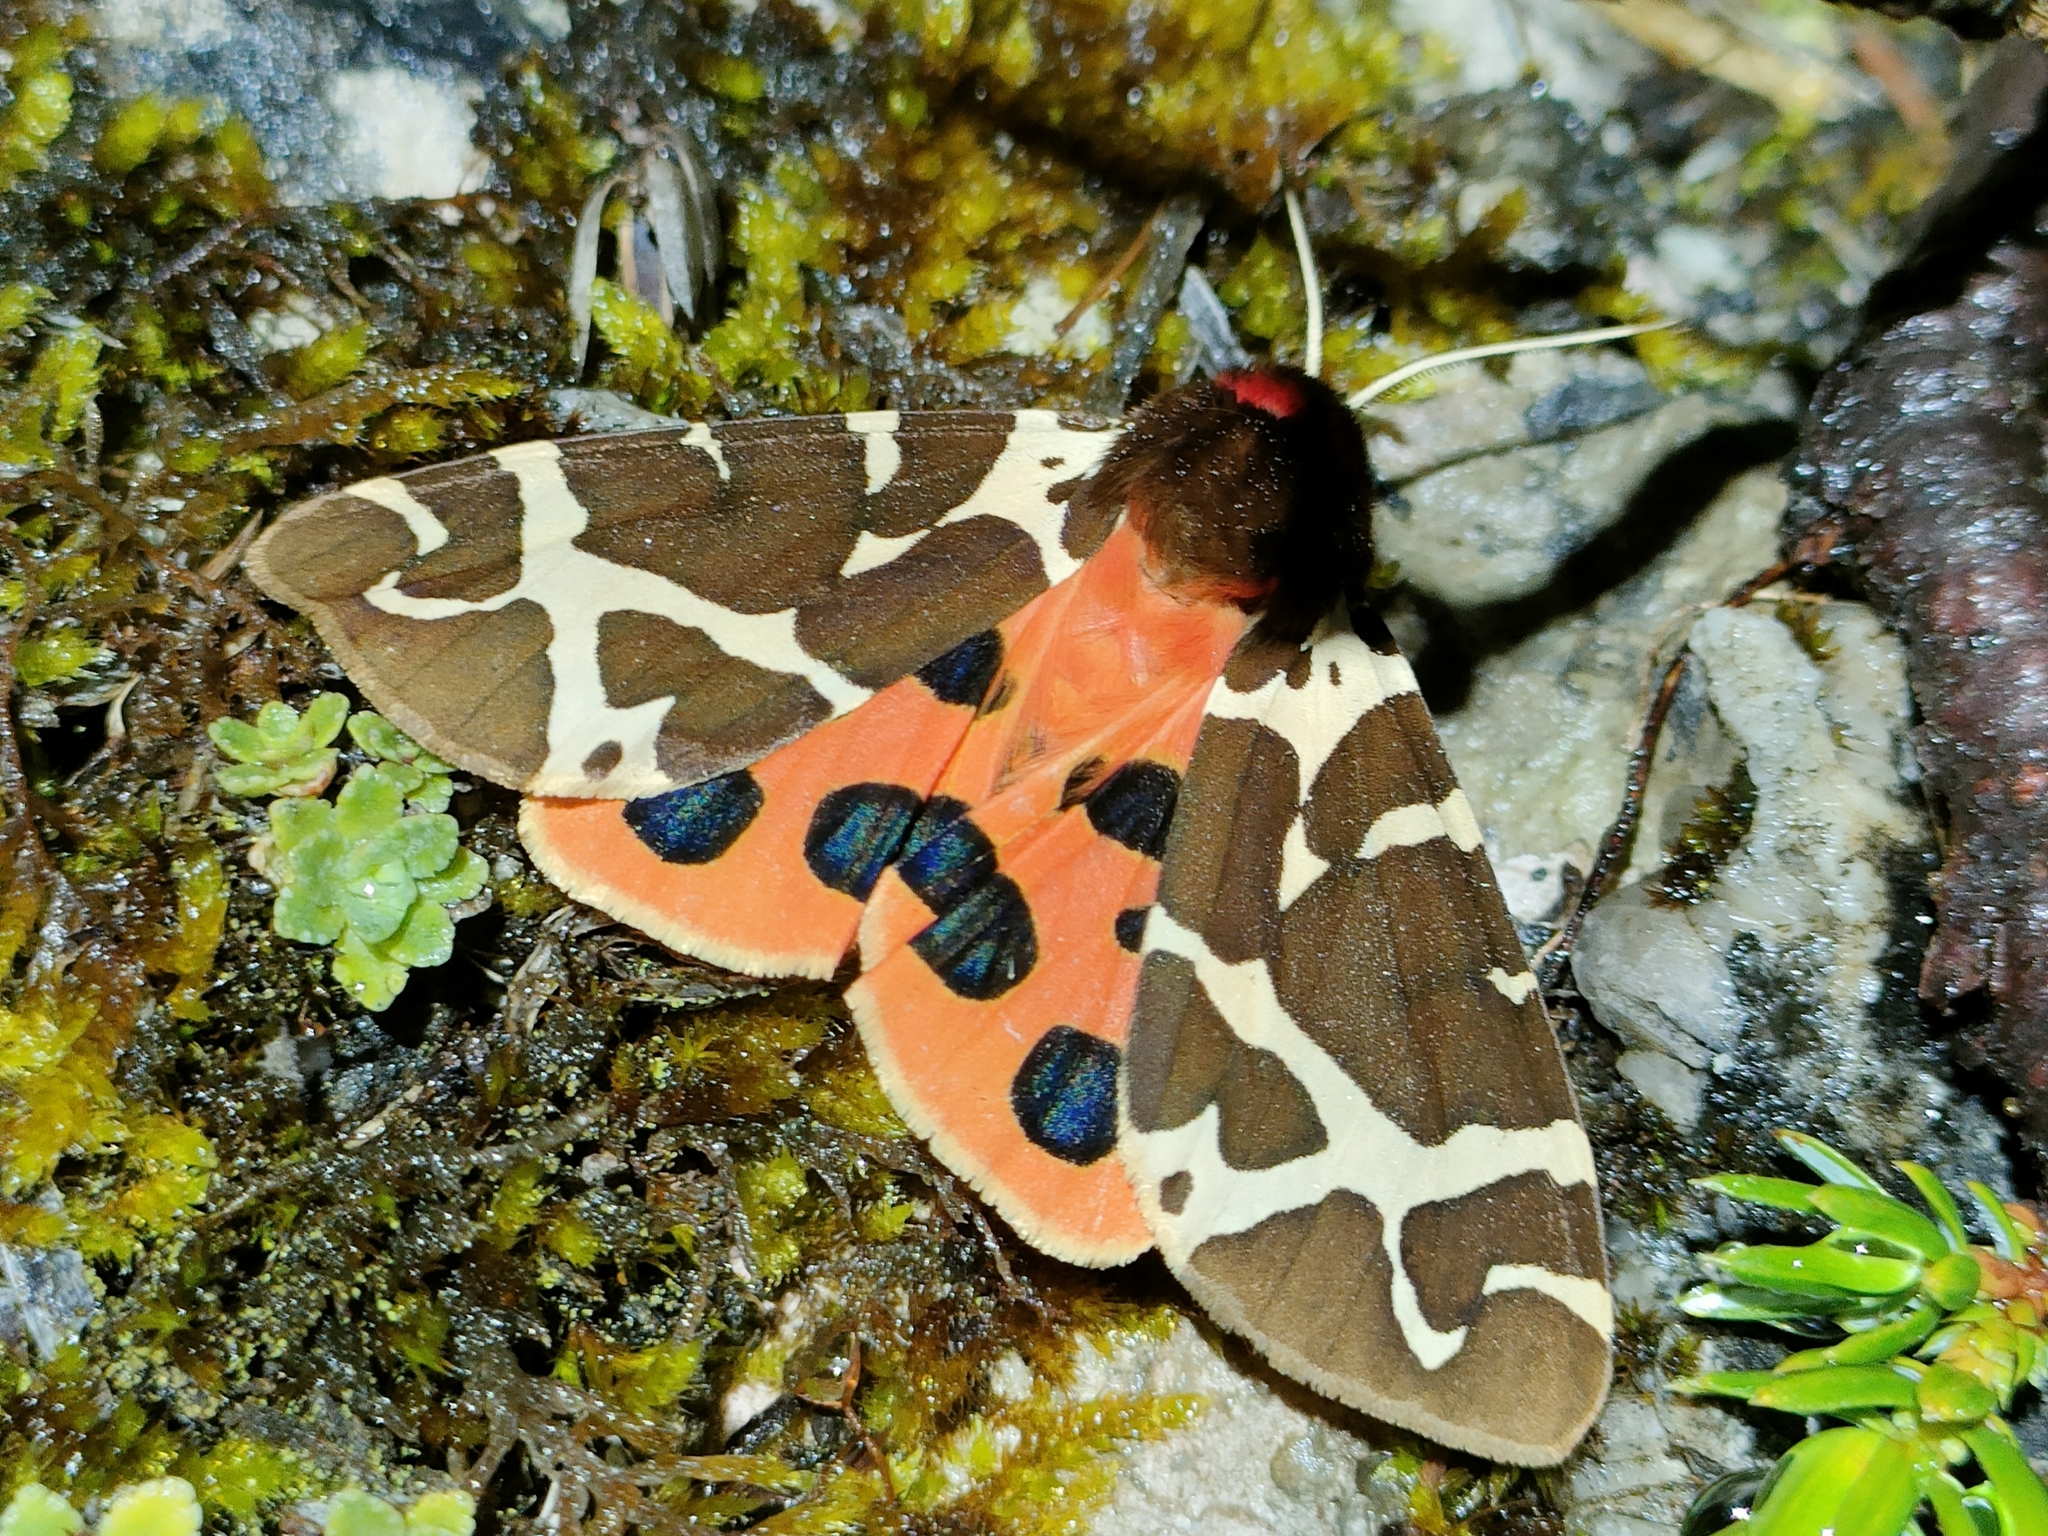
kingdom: Animalia
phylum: Arthropoda
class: Insecta
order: Lepidoptera
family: Erebidae
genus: Arctia
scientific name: Arctia caja
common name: Garden tiger
